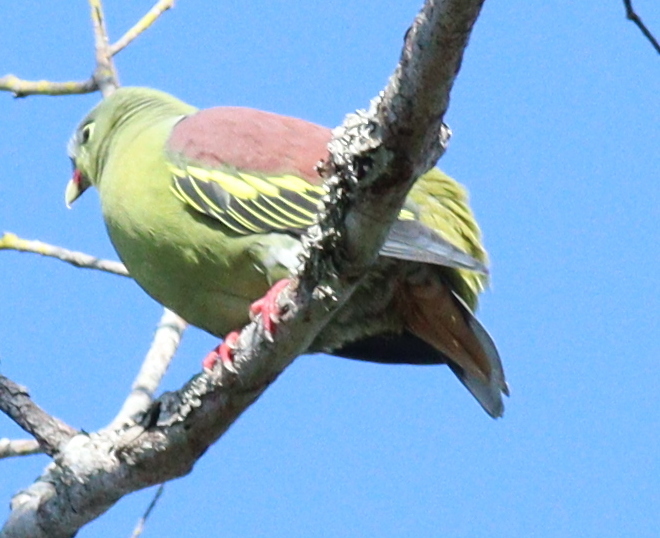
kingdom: Animalia
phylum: Chordata
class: Aves
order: Columbiformes
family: Columbidae
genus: Treron
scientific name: Treron curvirostra
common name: Thick-billed green pigeon
